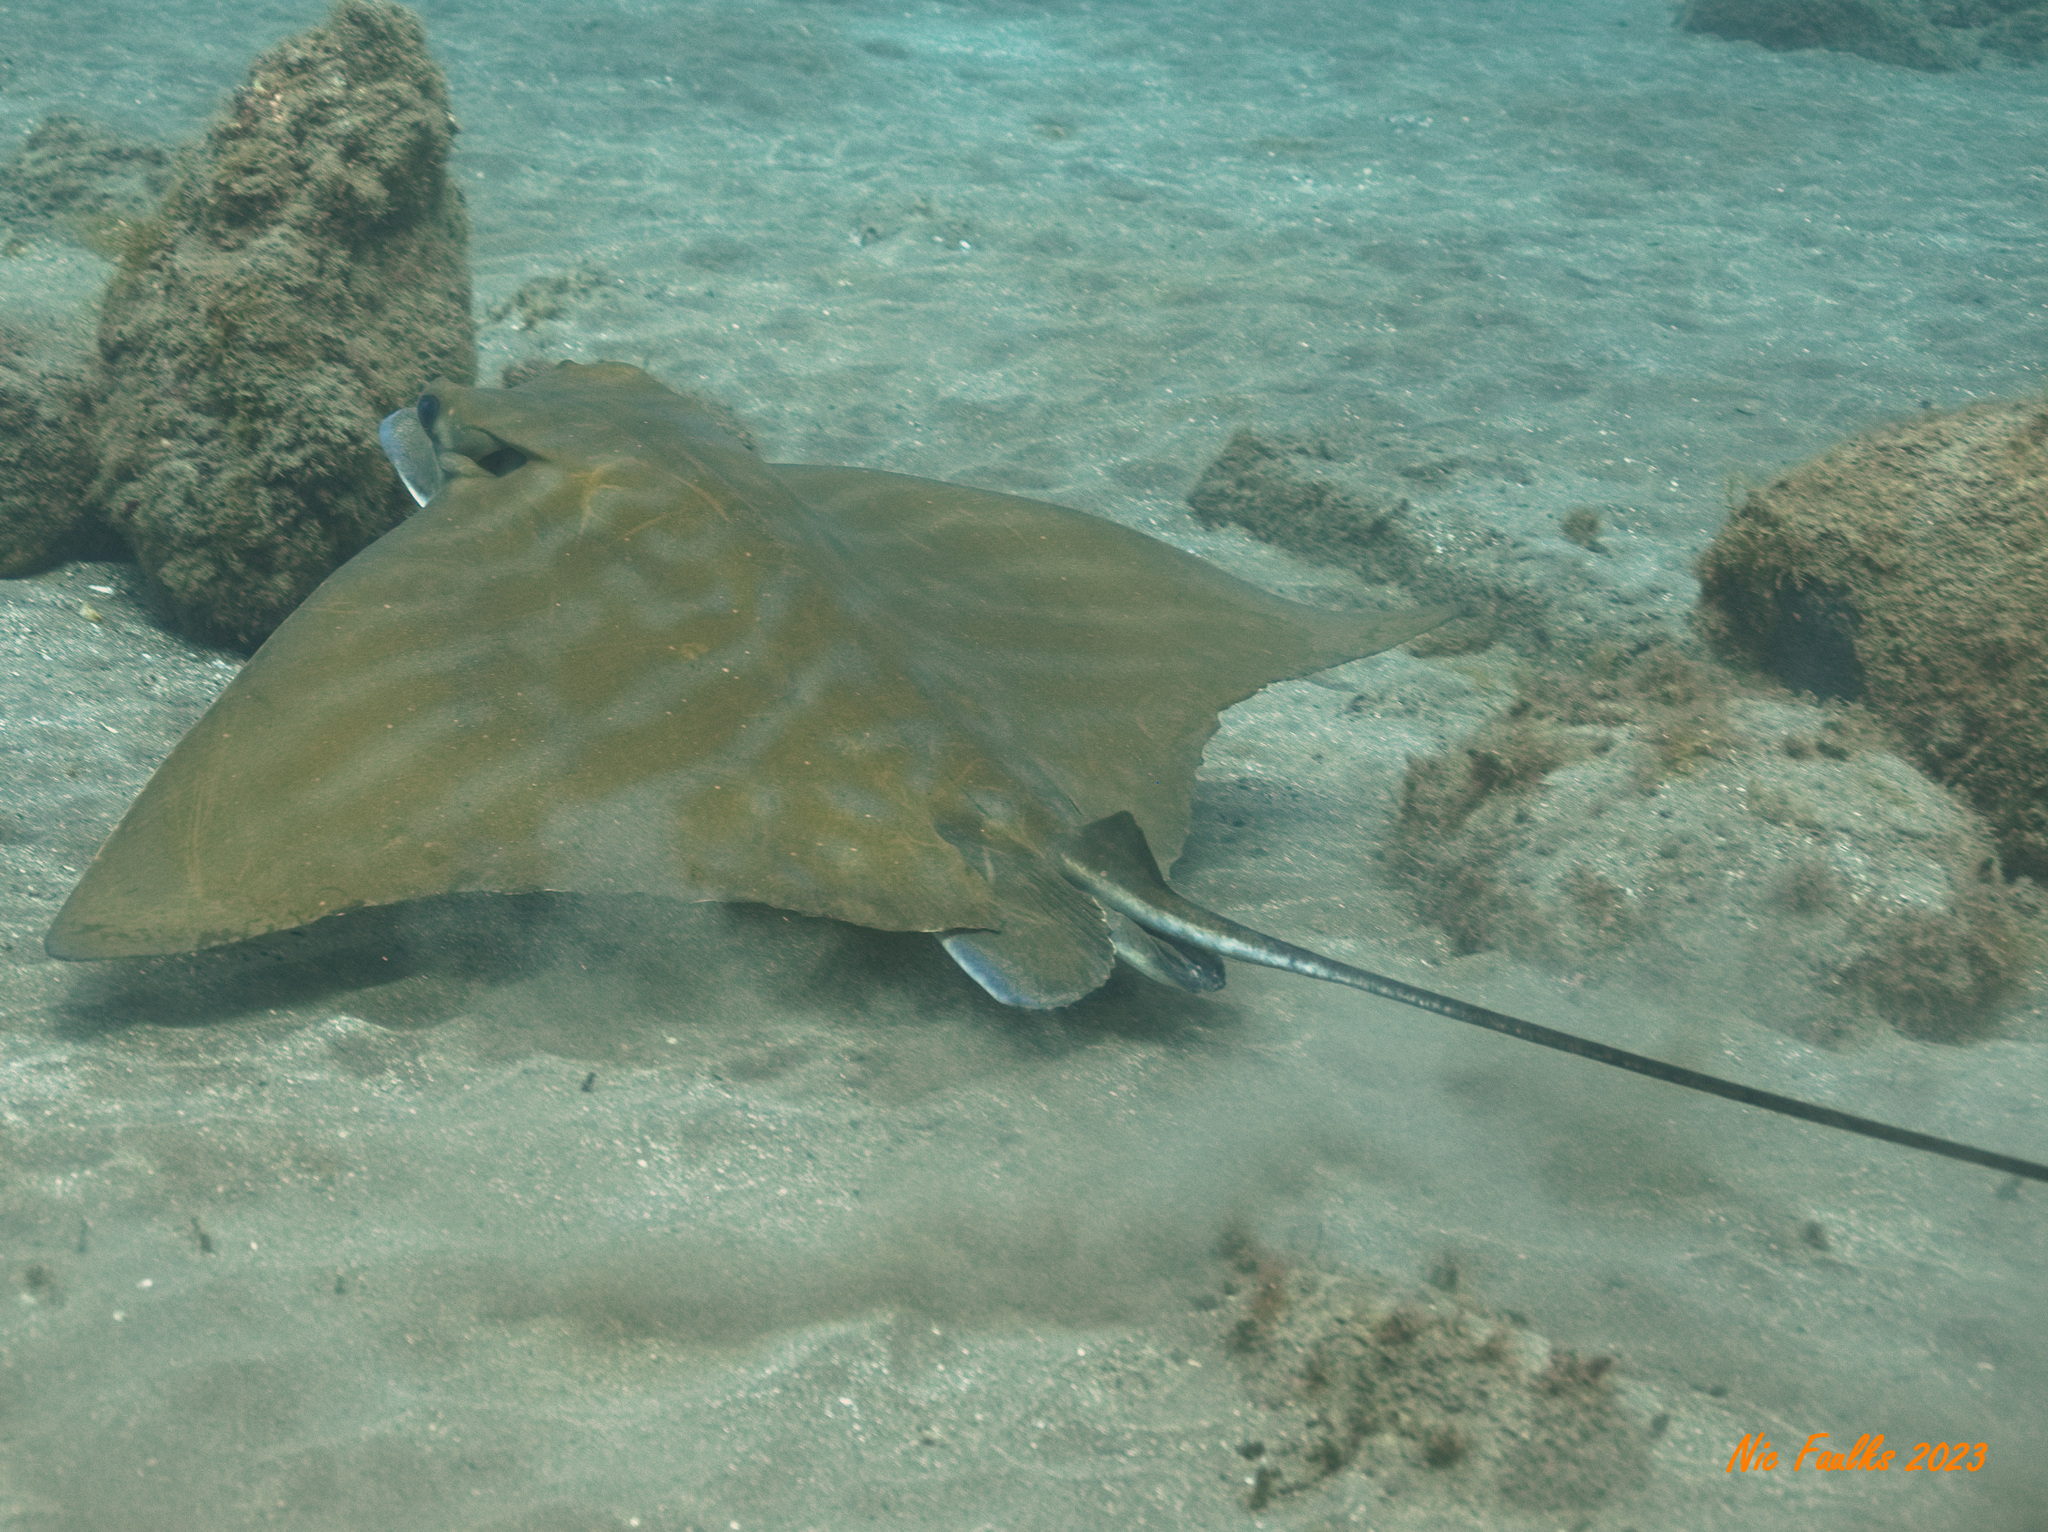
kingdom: Animalia
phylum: Chordata
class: Elasmobranchii
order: Myliobatiformes
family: Myliobatidae
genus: Aetomylaeus
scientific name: Aetomylaeus bovinus
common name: Bull ray
